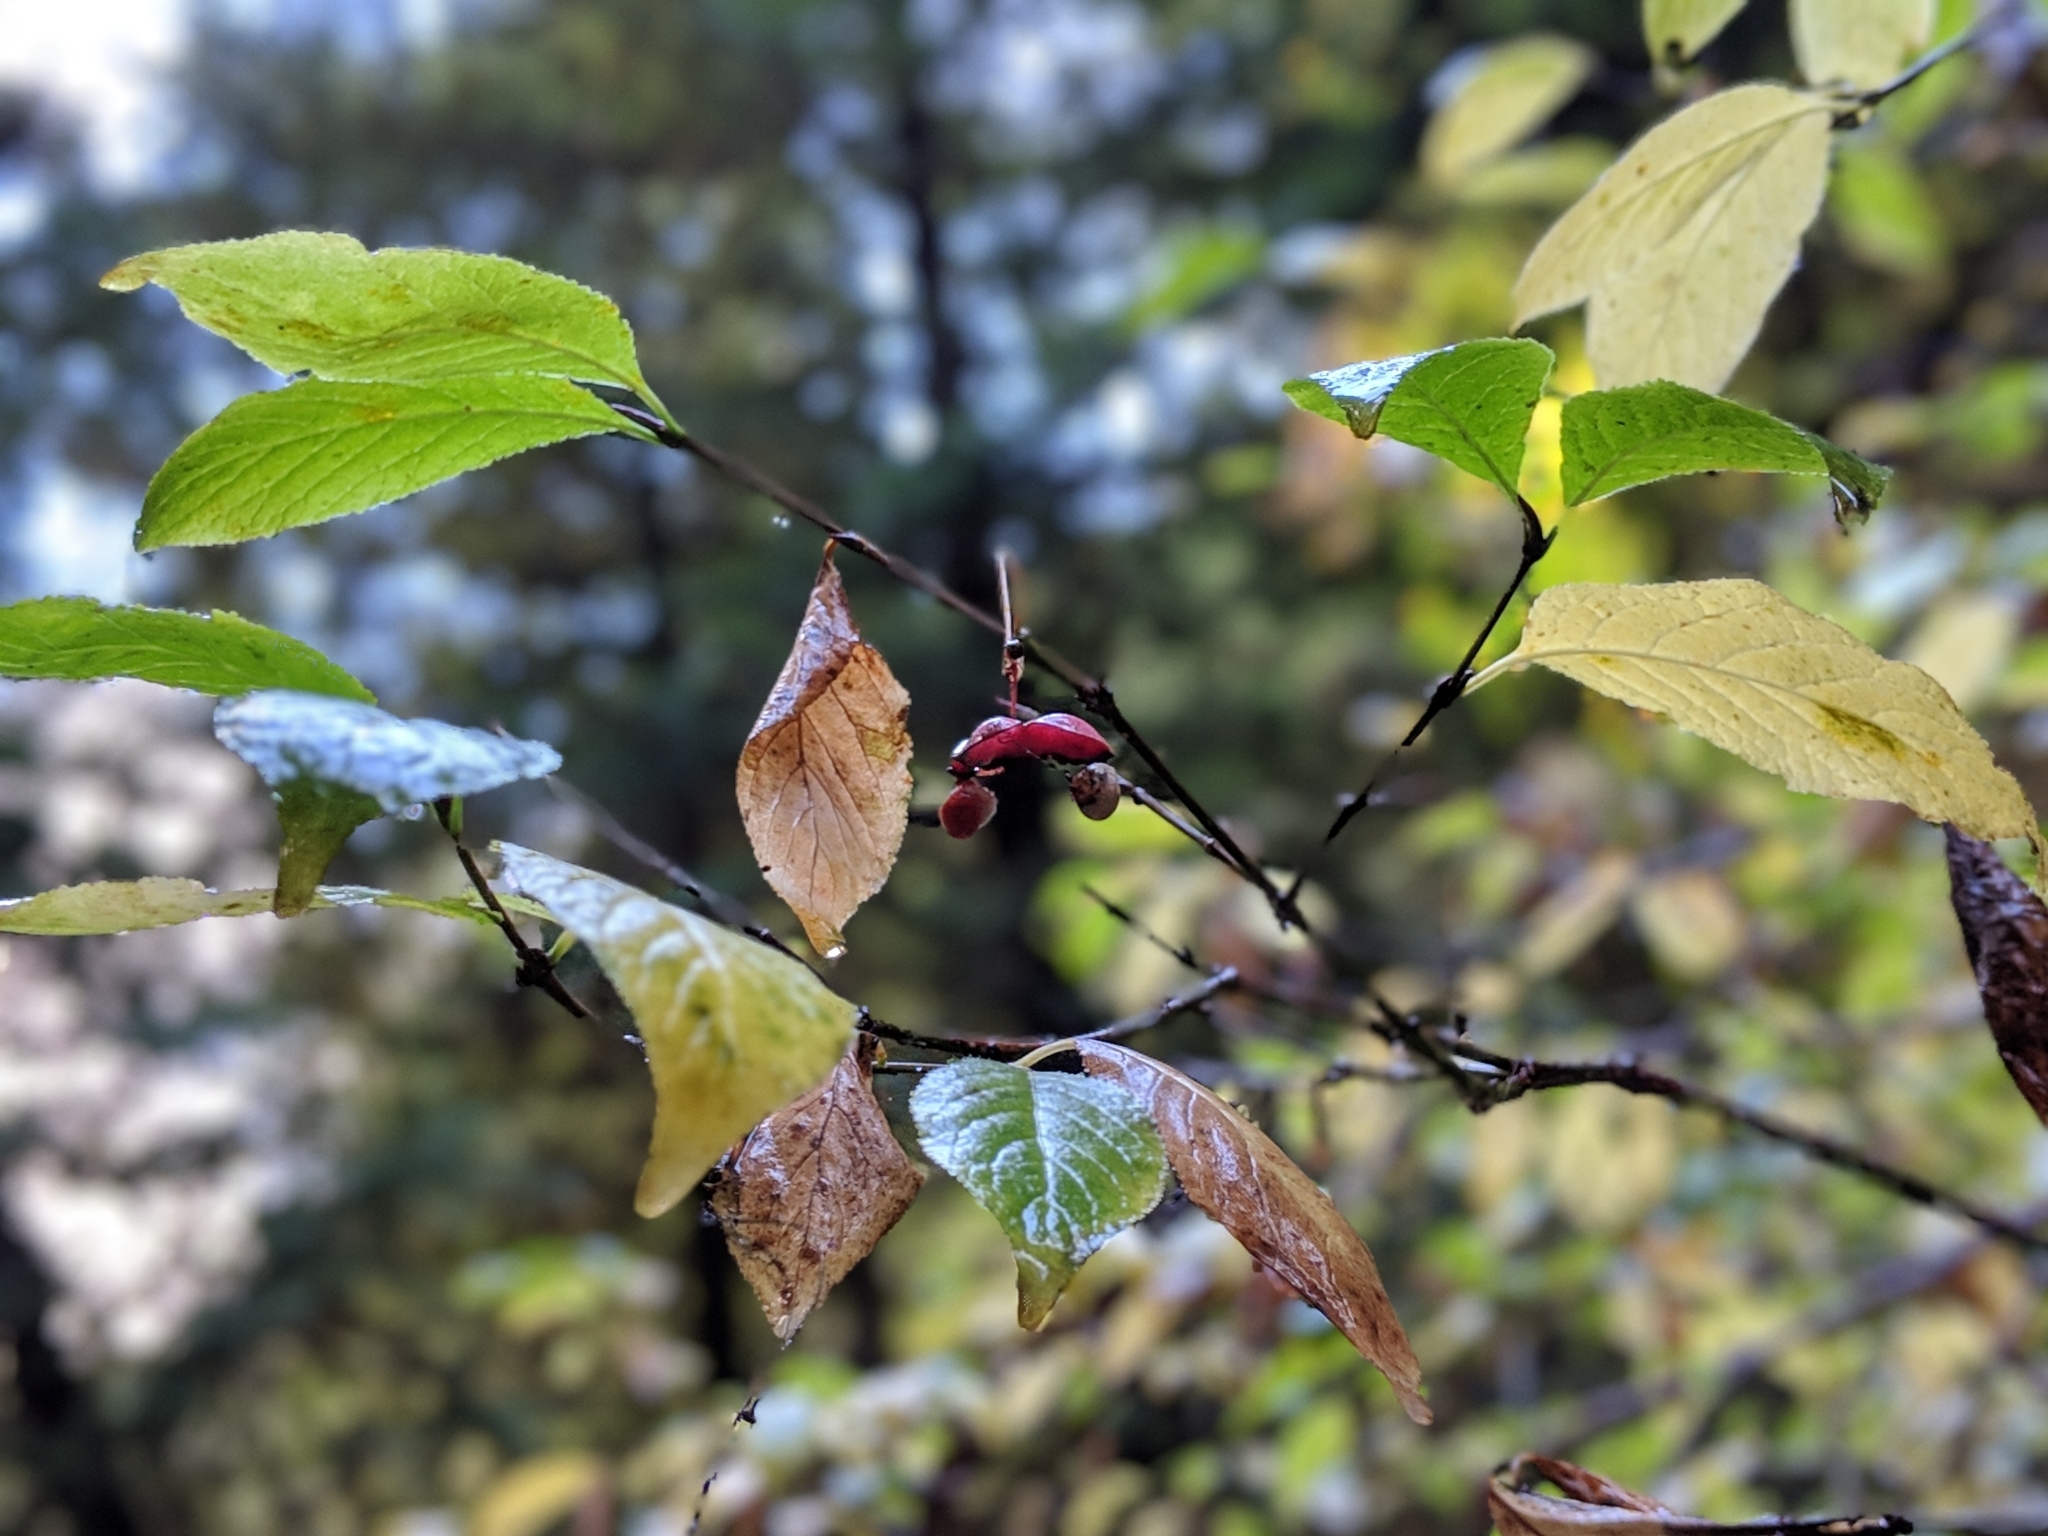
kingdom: Plantae
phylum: Tracheophyta
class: Magnoliopsida
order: Celastrales
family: Celastraceae
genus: Euonymus
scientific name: Euonymus occidentalis
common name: Western burningbush
